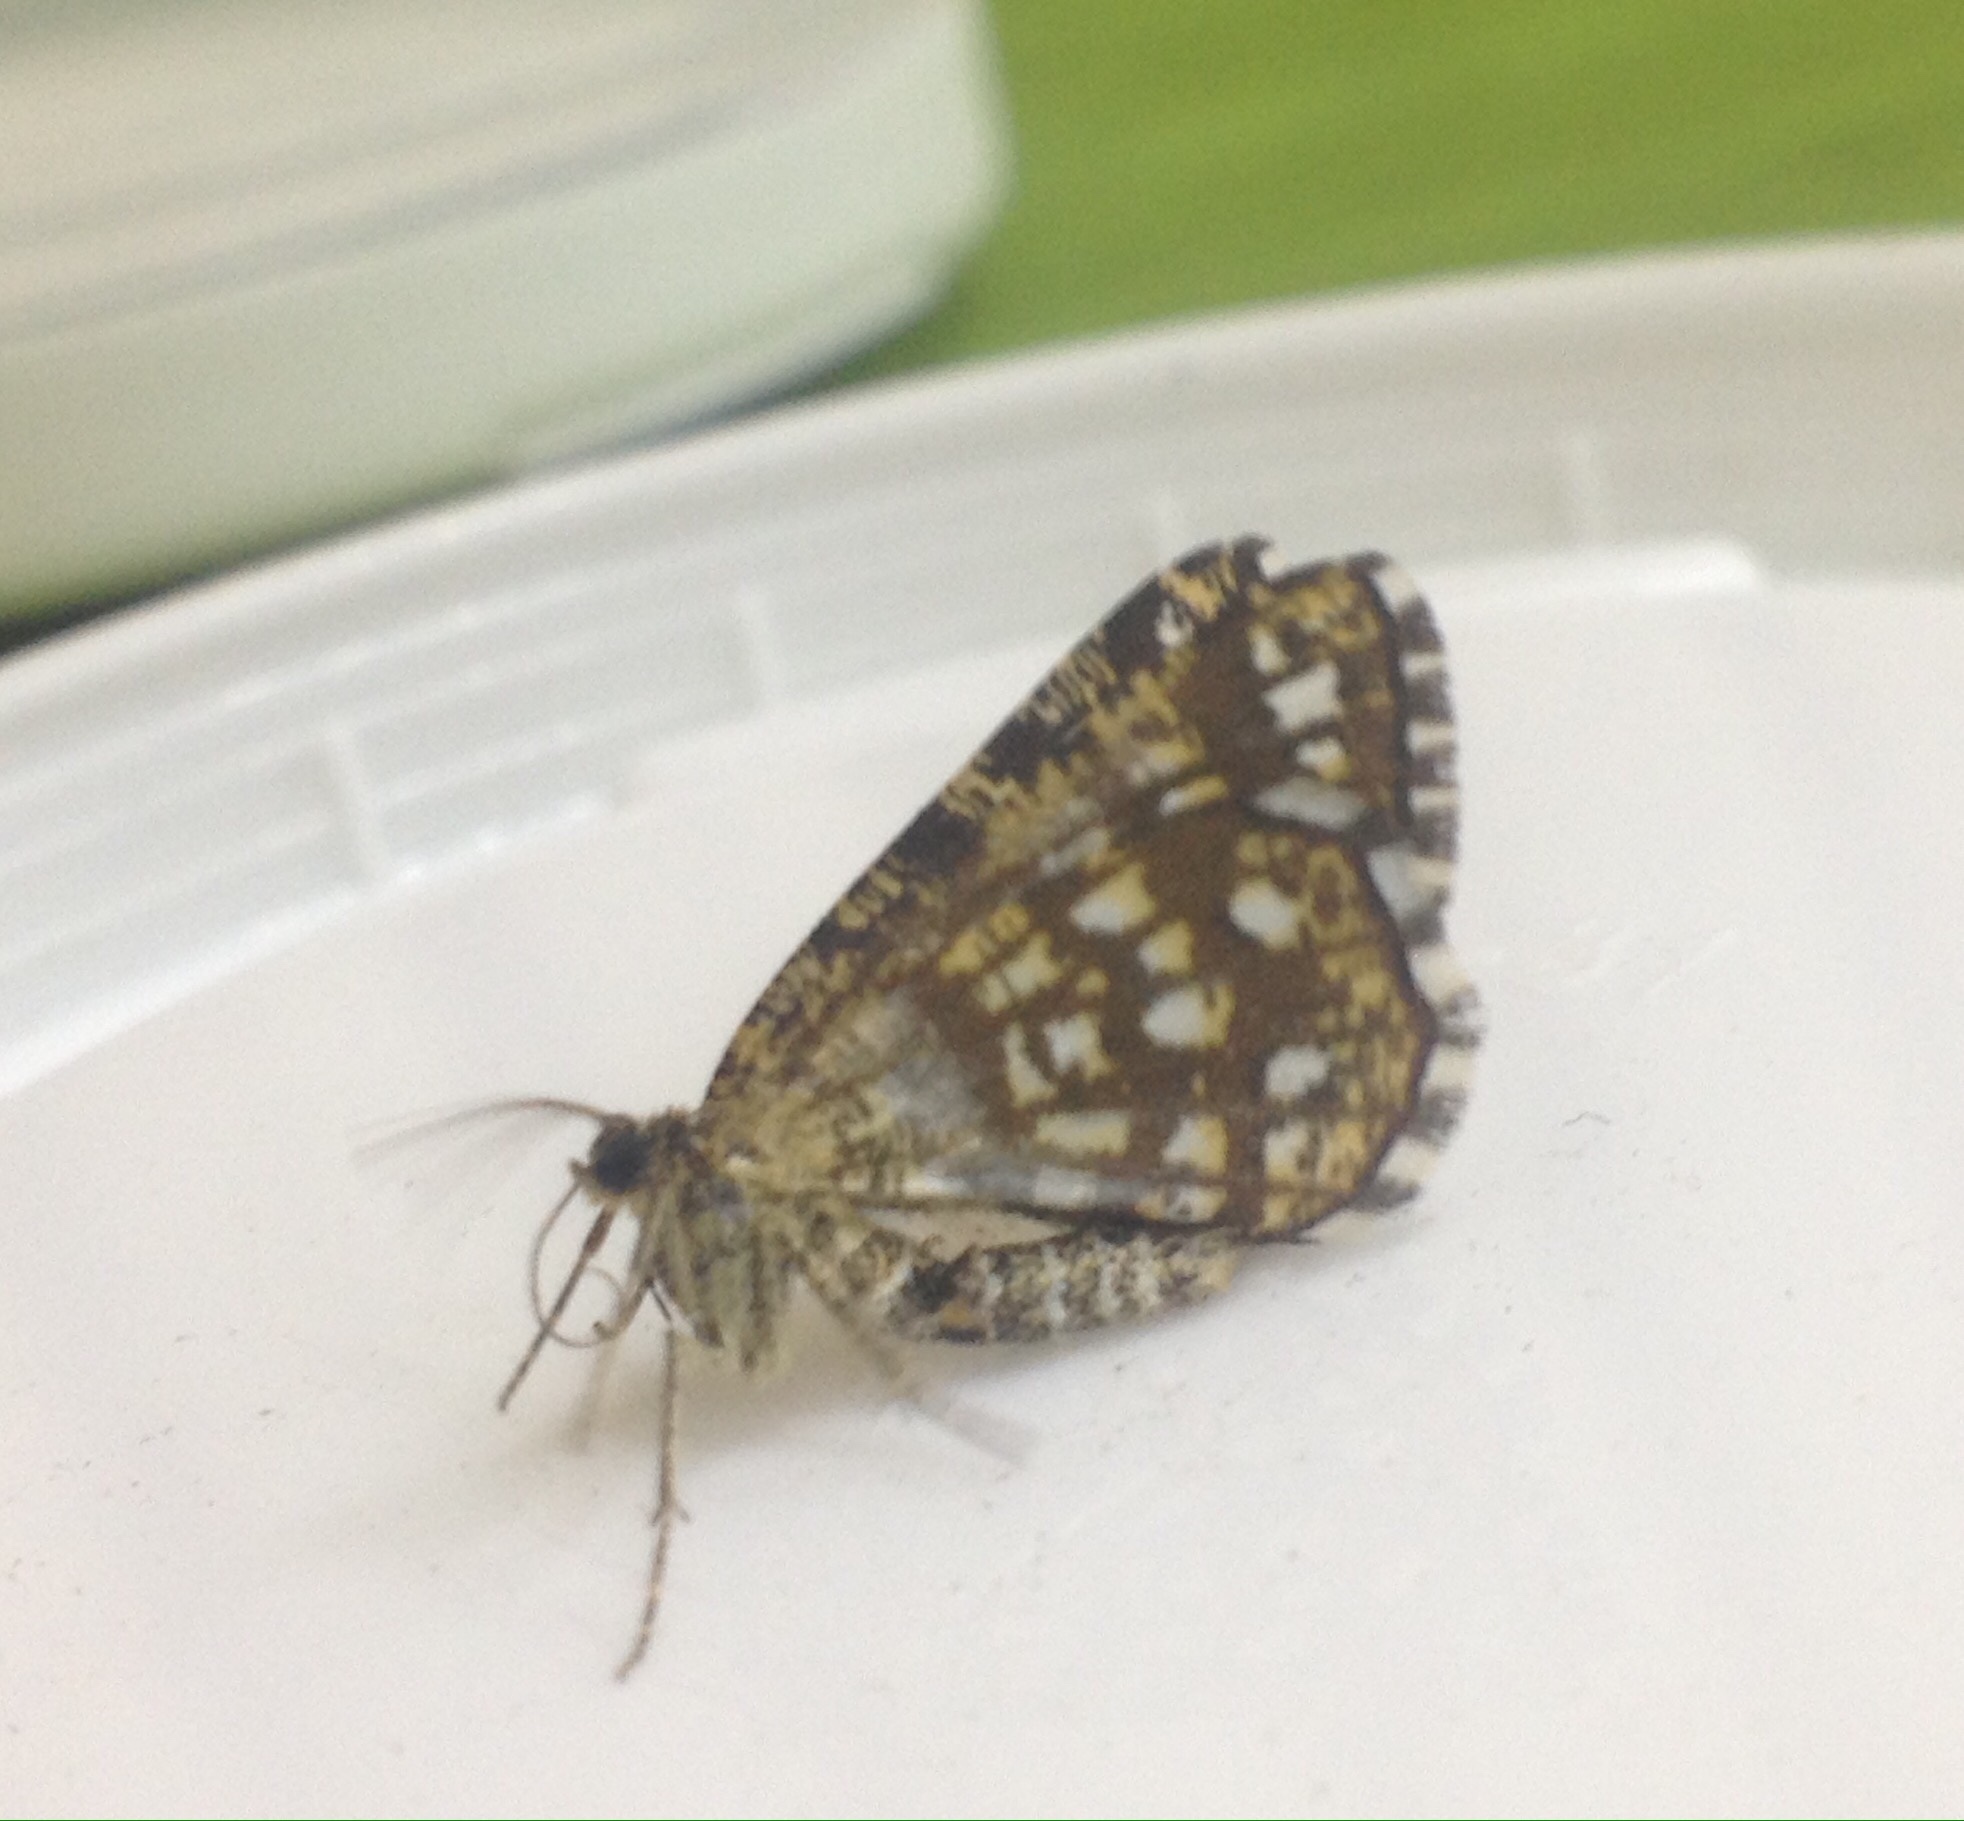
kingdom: Animalia
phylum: Arthropoda
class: Insecta
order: Lepidoptera
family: Geometridae
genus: Chiasmia
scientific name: Chiasmia clathrata
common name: Latticed heath
